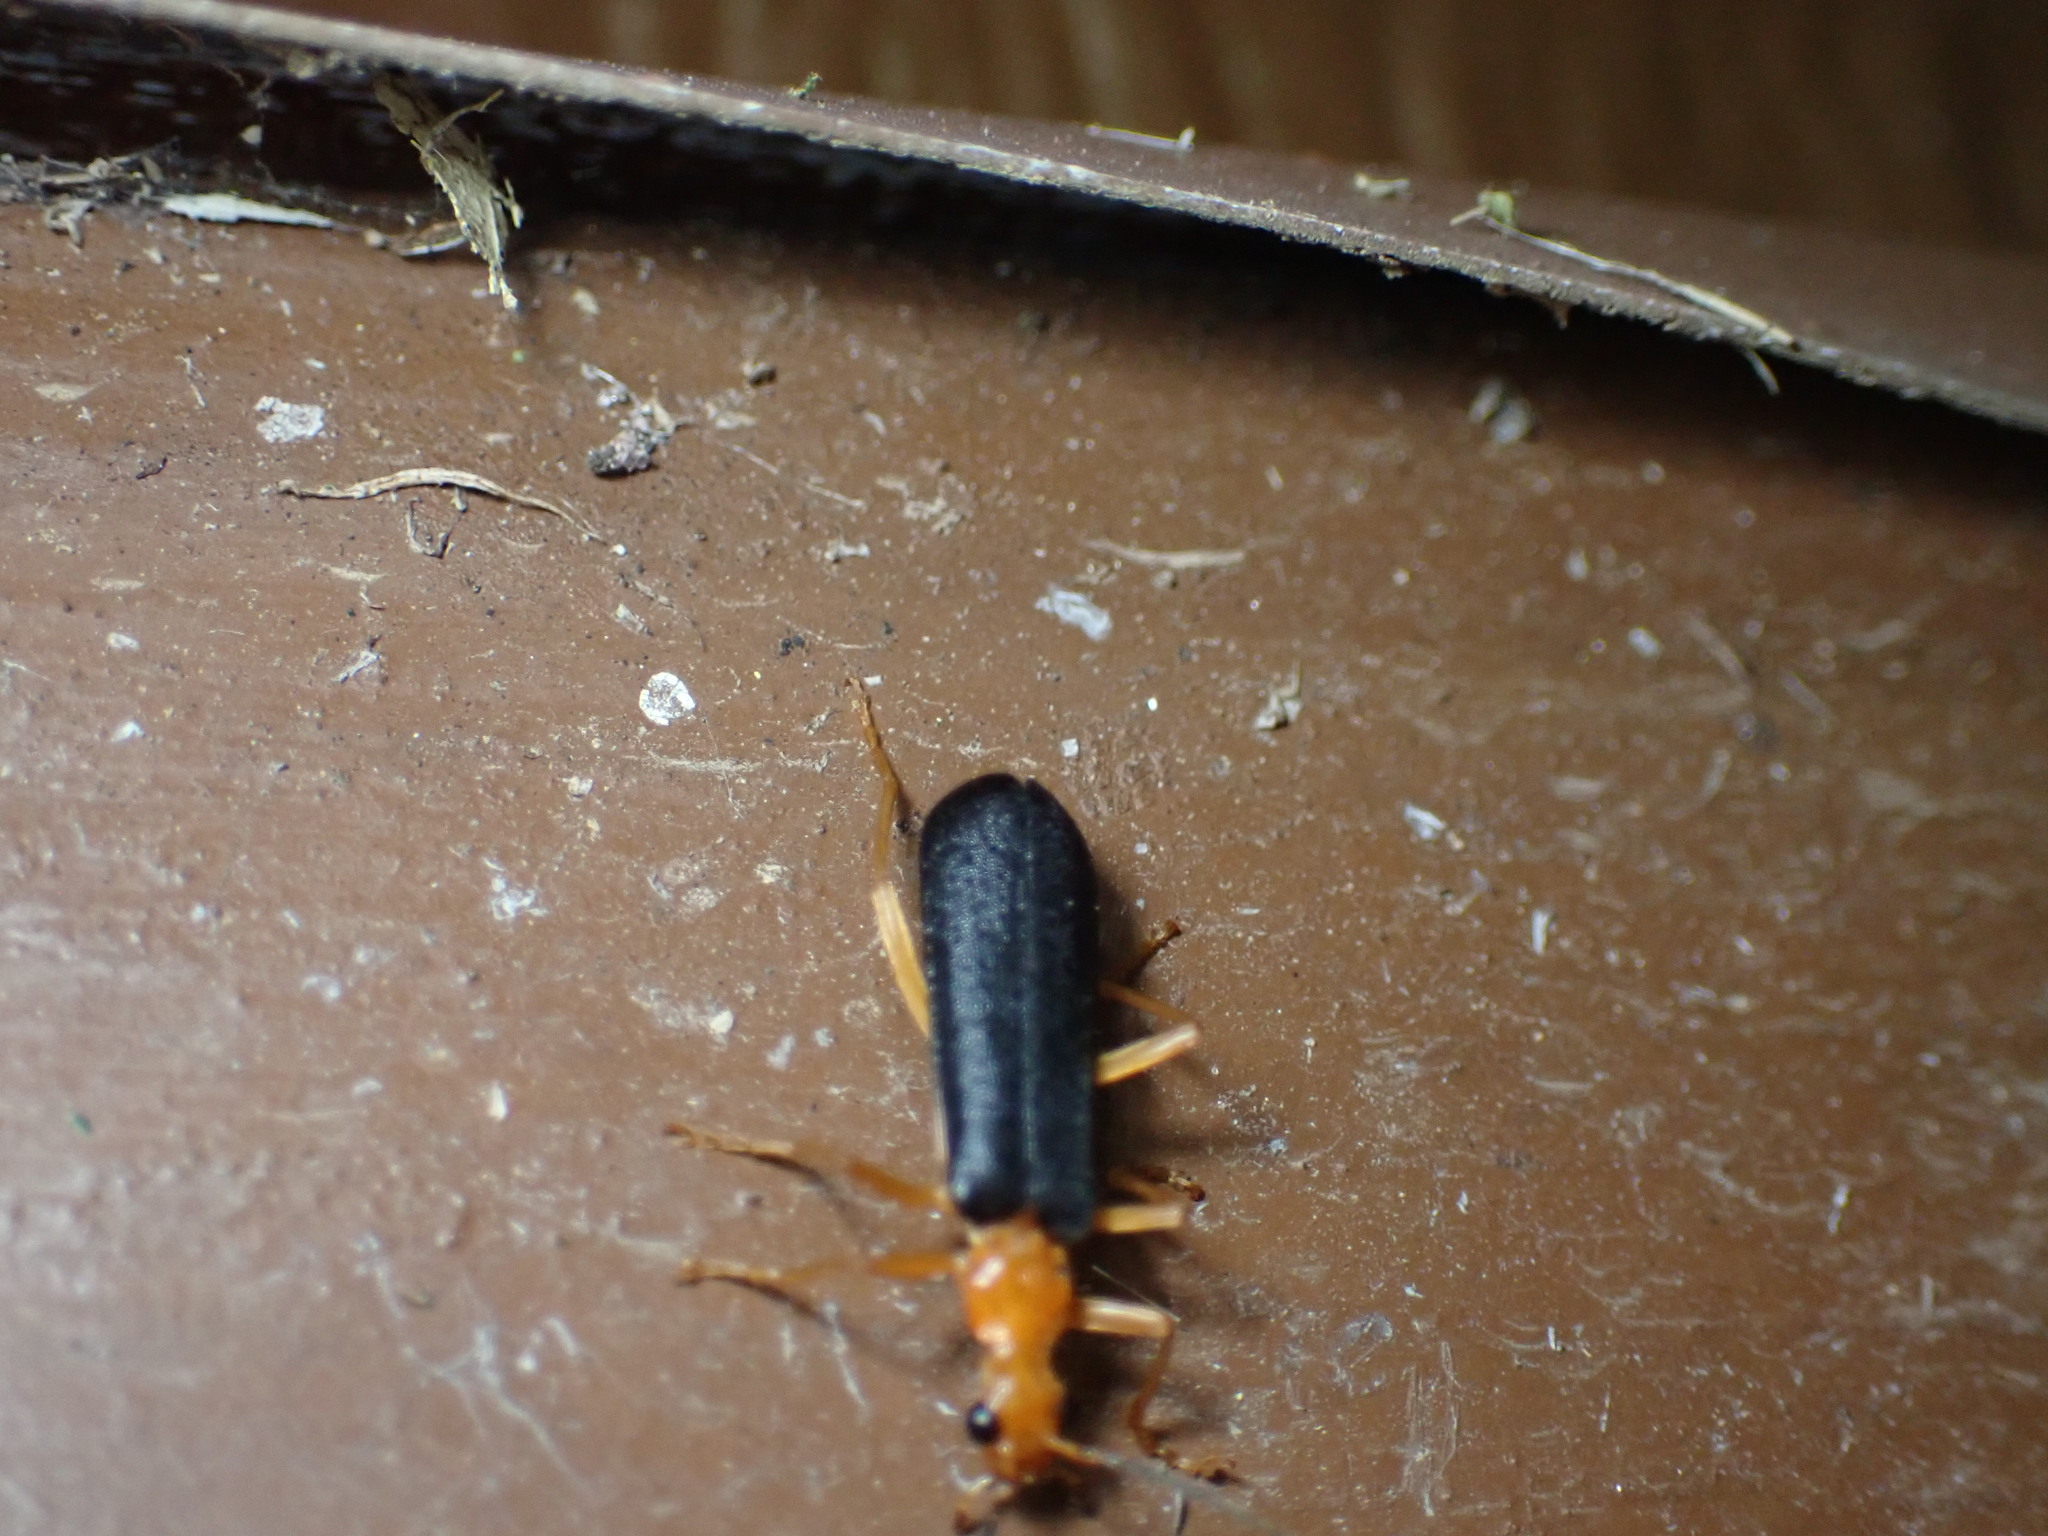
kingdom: Animalia
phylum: Arthropoda
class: Insecta
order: Coleoptera
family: Cantharidae
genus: Podabrus
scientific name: Podabrus fayi
